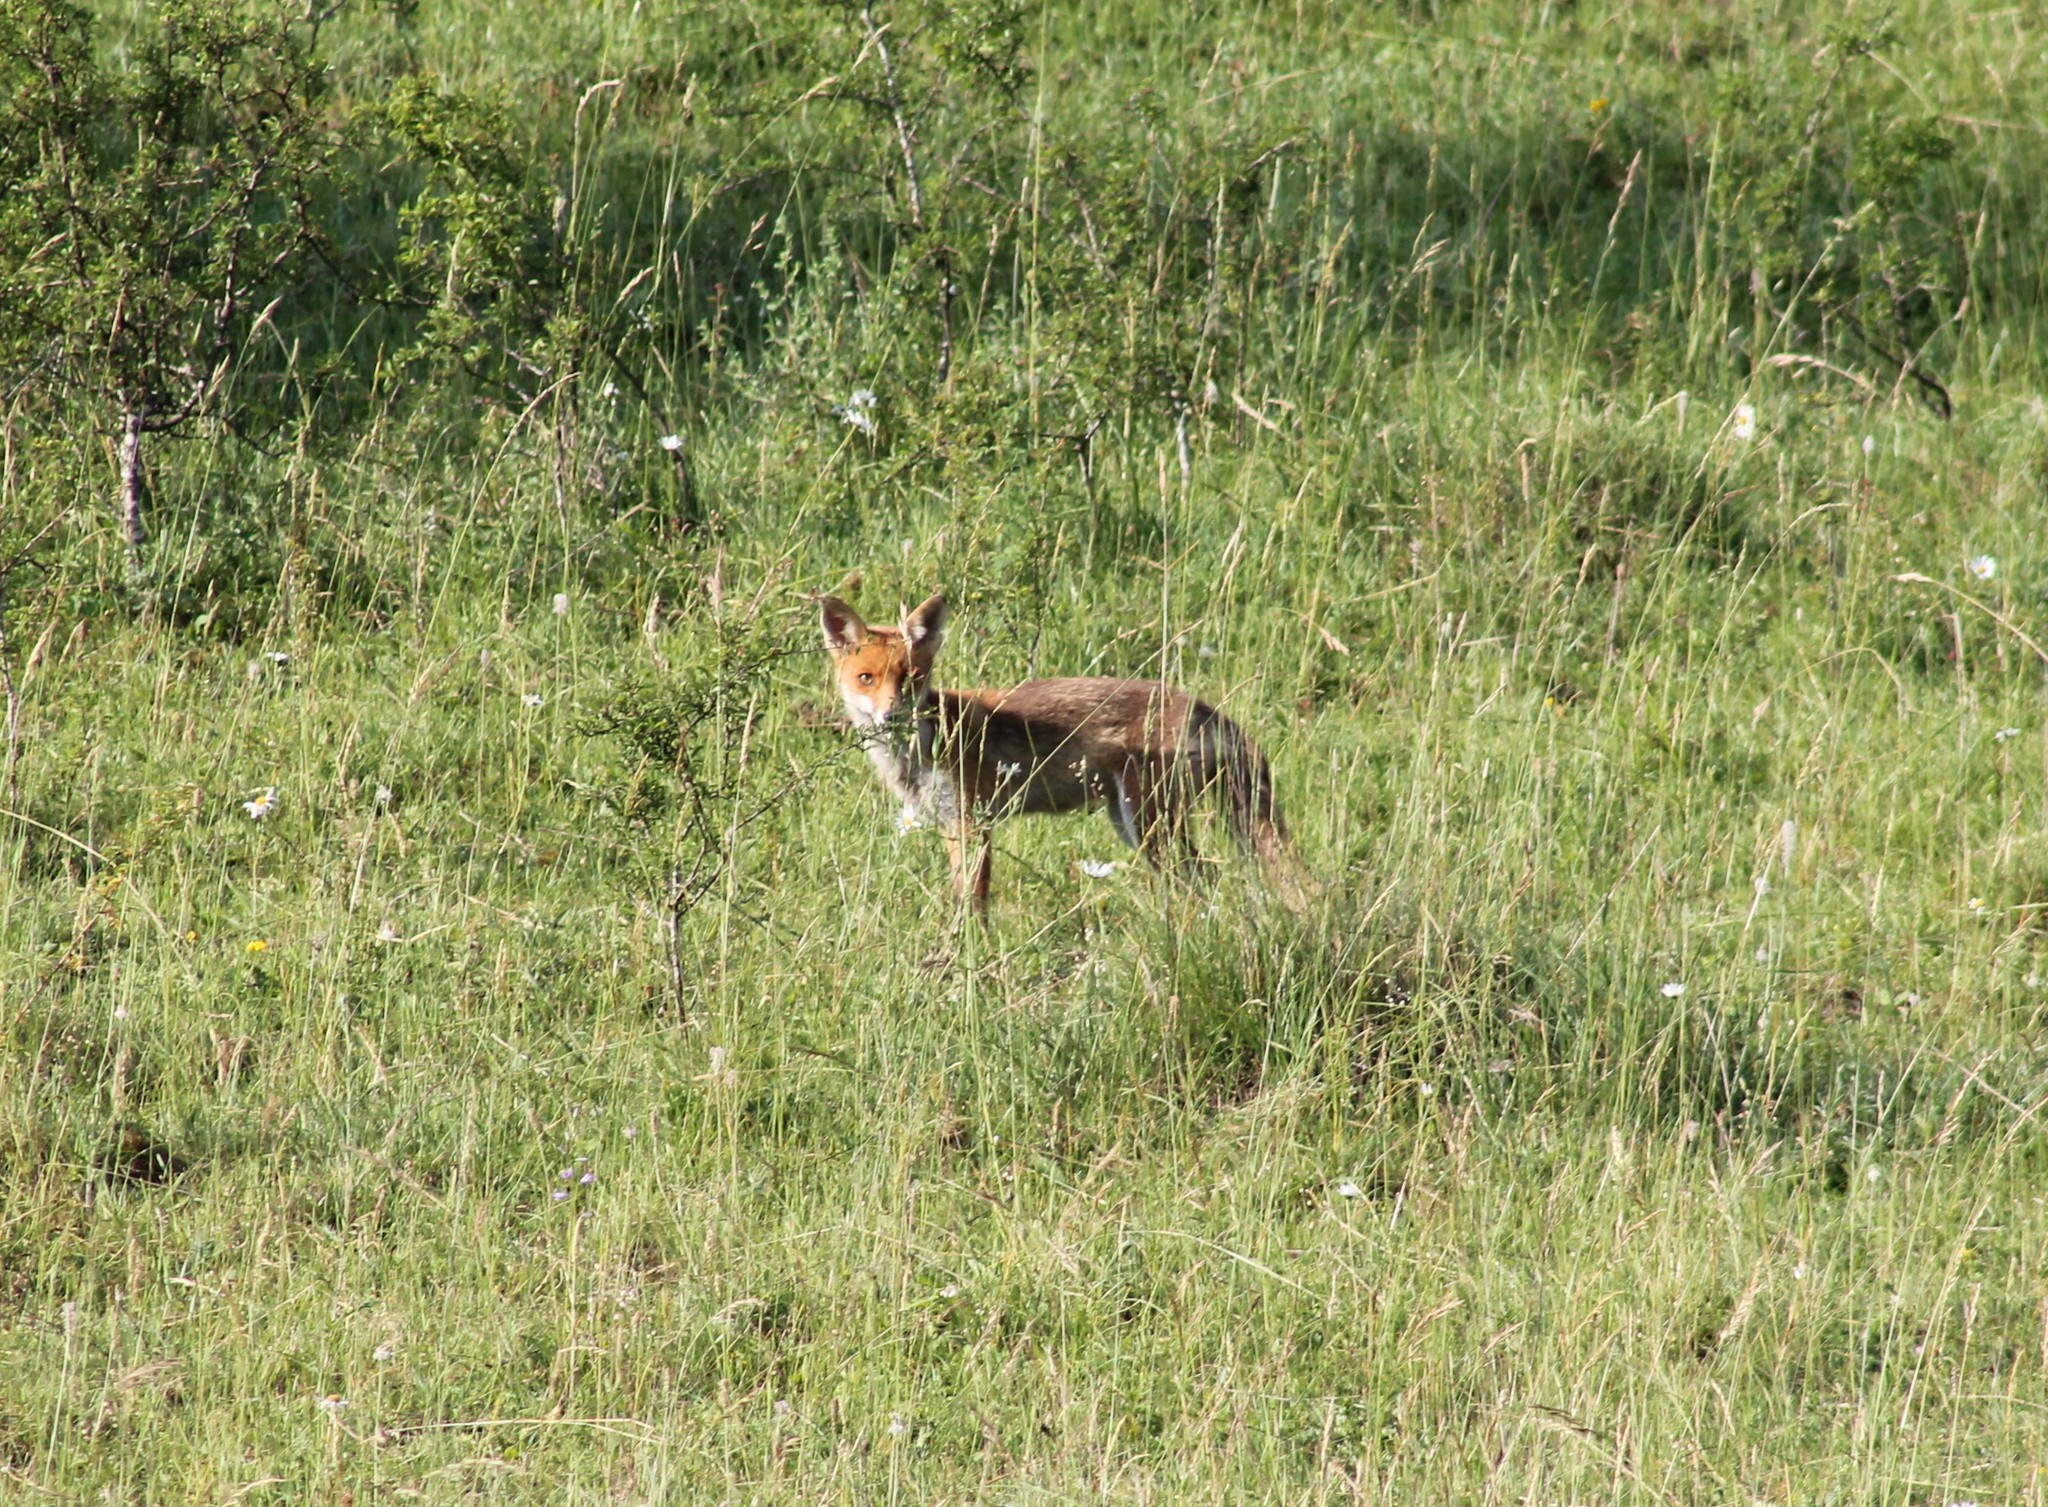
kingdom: Animalia
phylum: Chordata
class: Mammalia
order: Carnivora
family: Canidae
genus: Vulpes
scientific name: Vulpes vulpes
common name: Red fox
